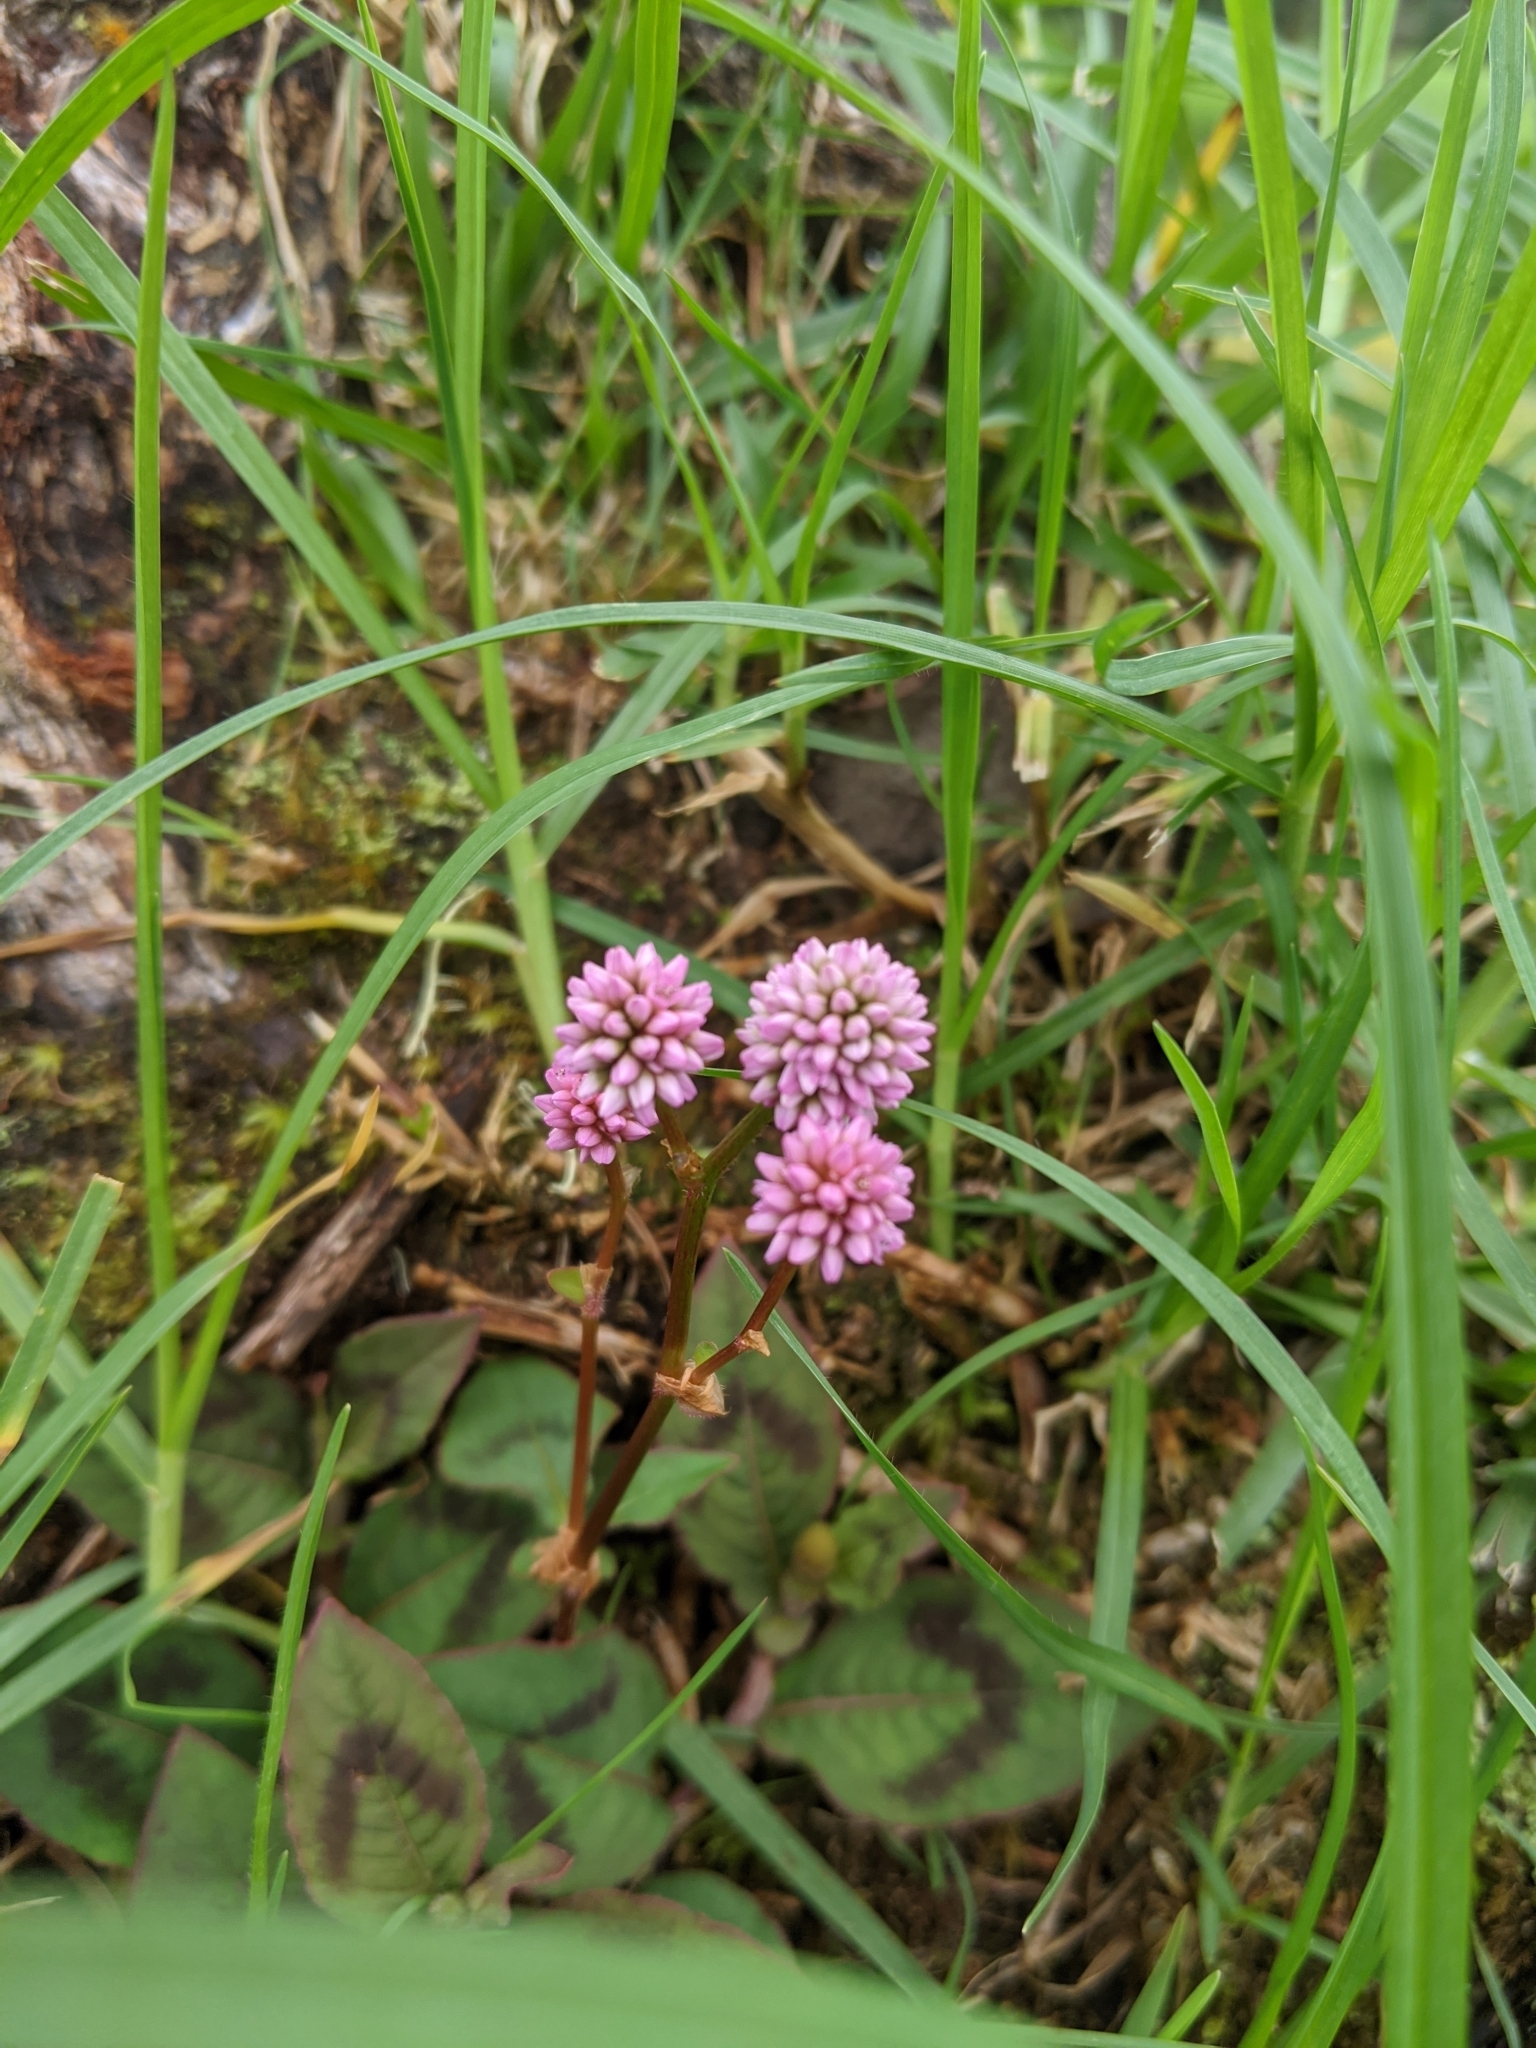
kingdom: Plantae
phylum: Tracheophyta
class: Magnoliopsida
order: Caryophyllales
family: Polygonaceae
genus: Persicaria
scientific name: Persicaria capitata
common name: Pinkhead smartweed
